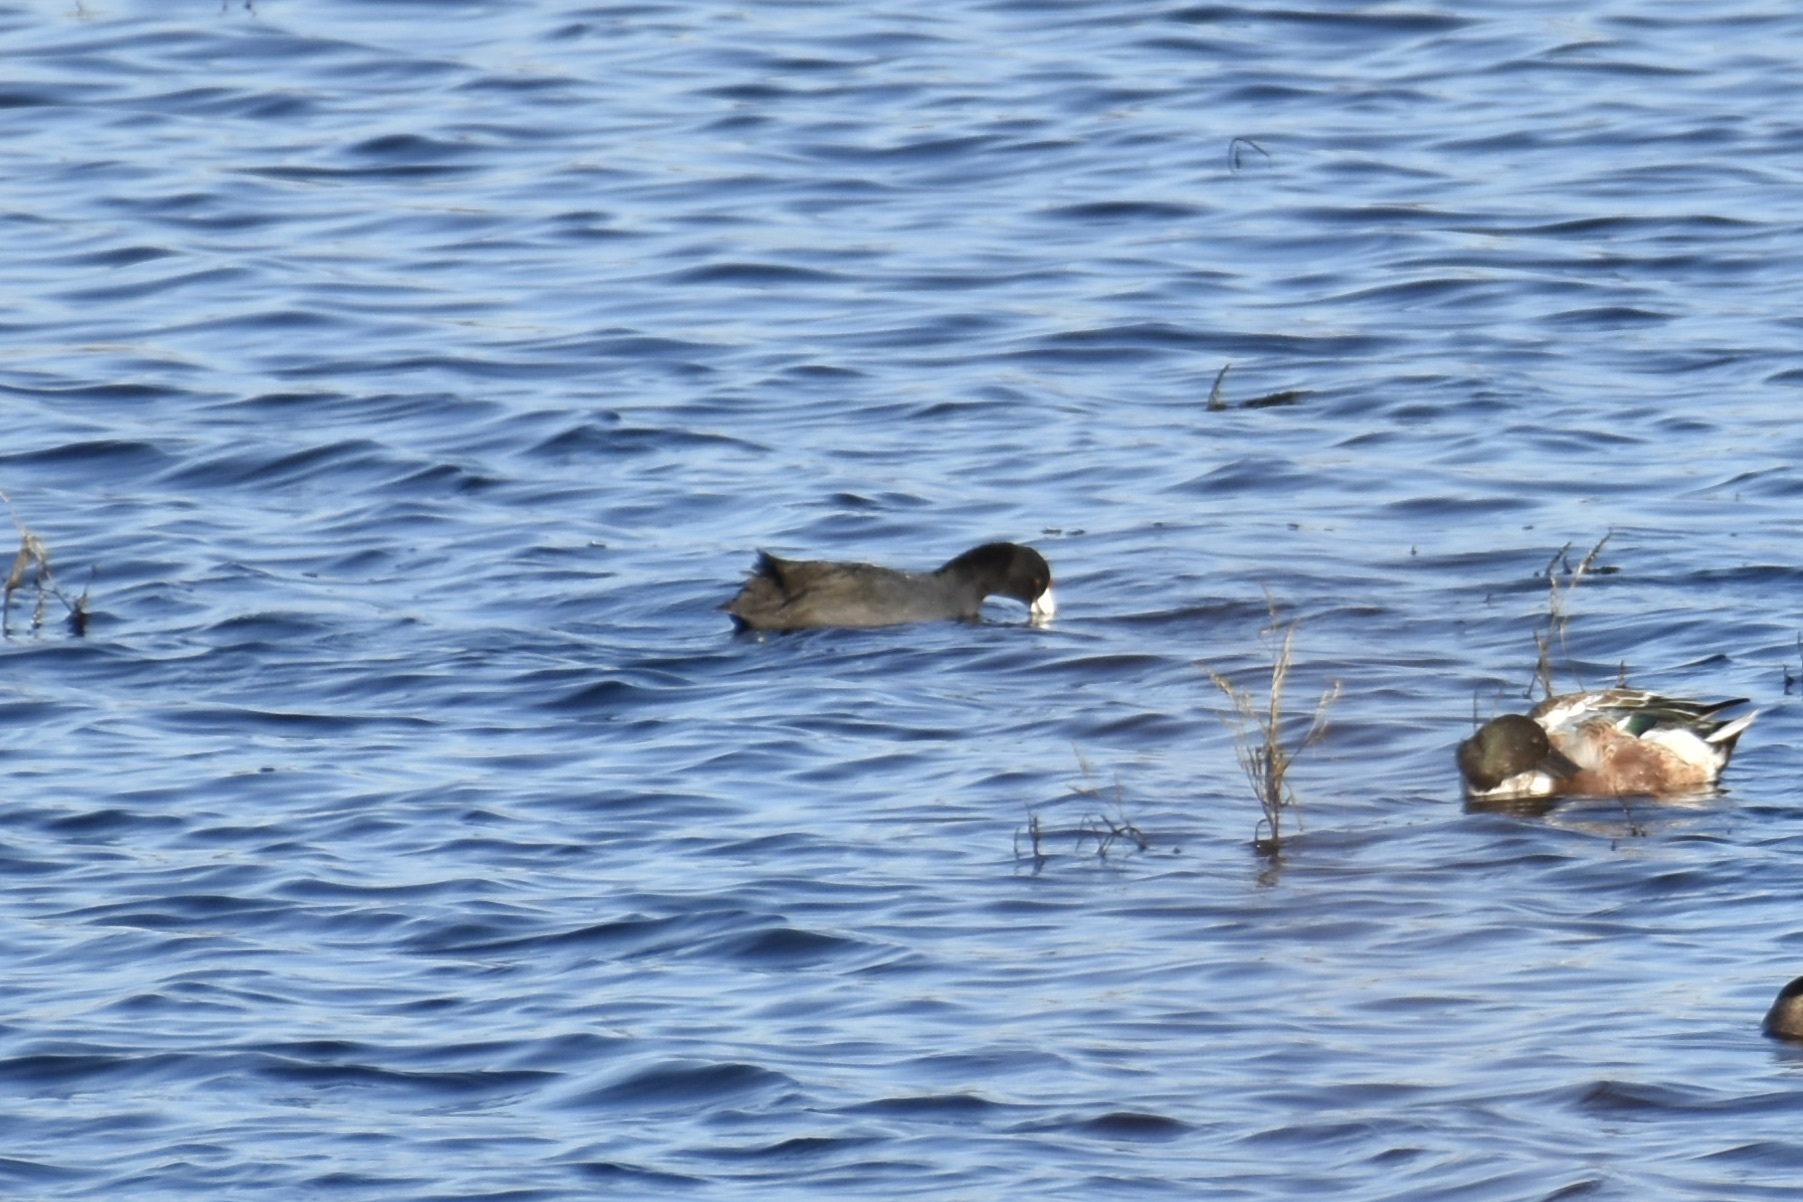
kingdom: Animalia
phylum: Chordata
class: Aves
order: Gruiformes
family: Rallidae
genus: Fulica
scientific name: Fulica americana
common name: American coot
